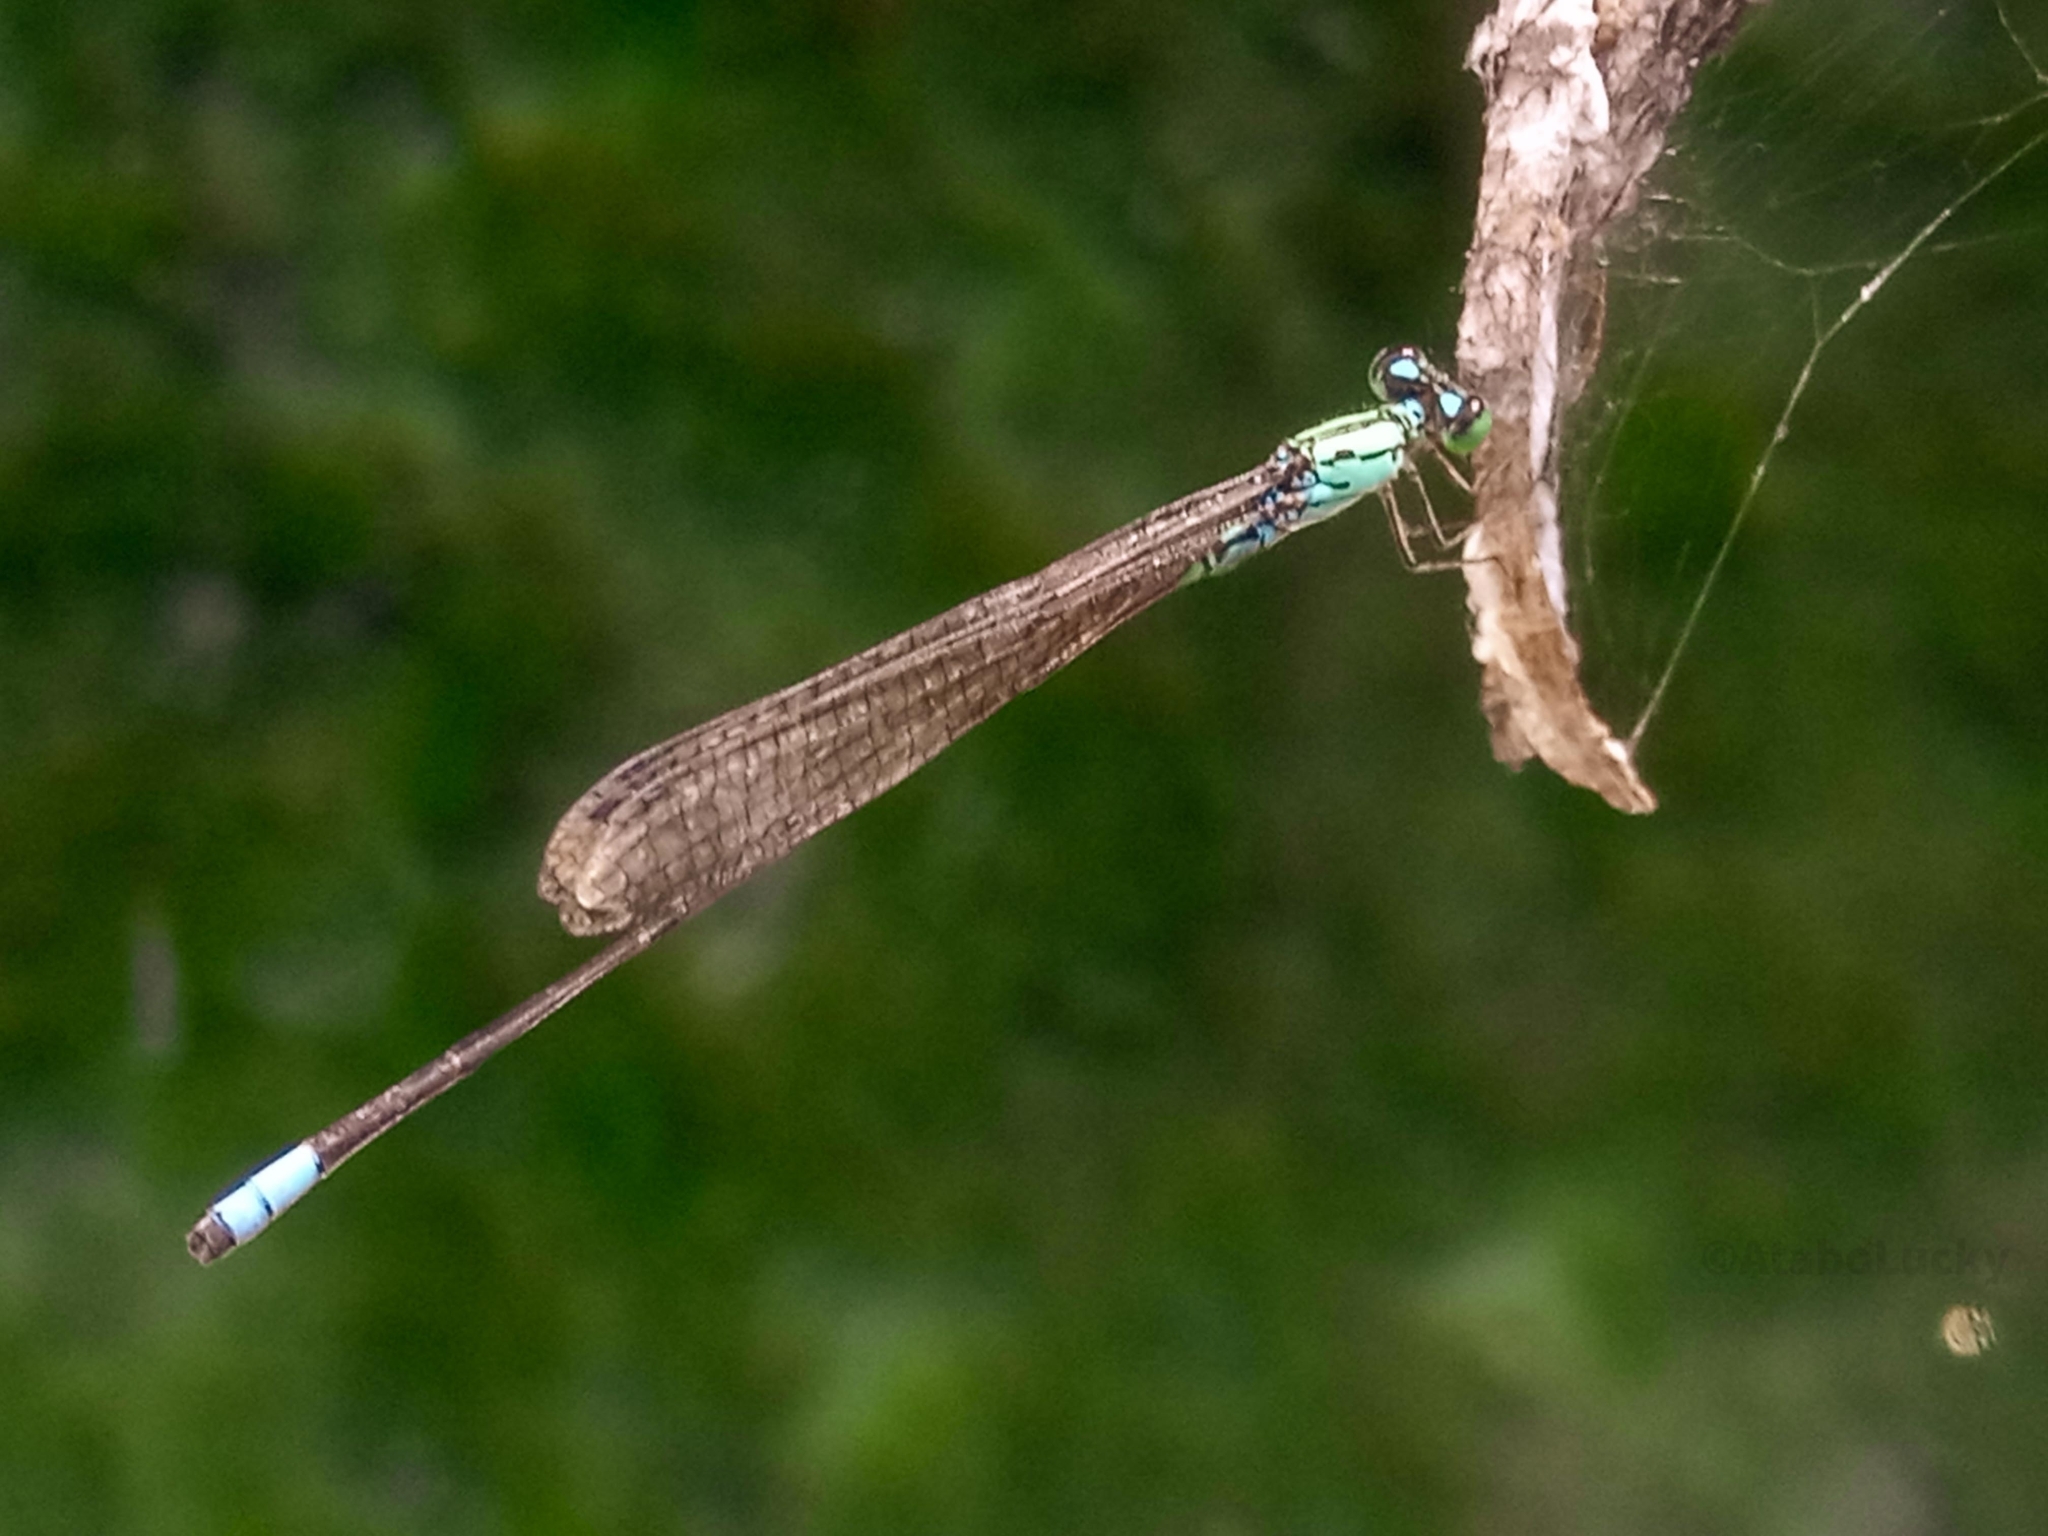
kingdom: Animalia
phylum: Arthropoda
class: Insecta
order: Odonata
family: Coenagrionidae
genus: Pseudagrion
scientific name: Pseudagrion coeleste
